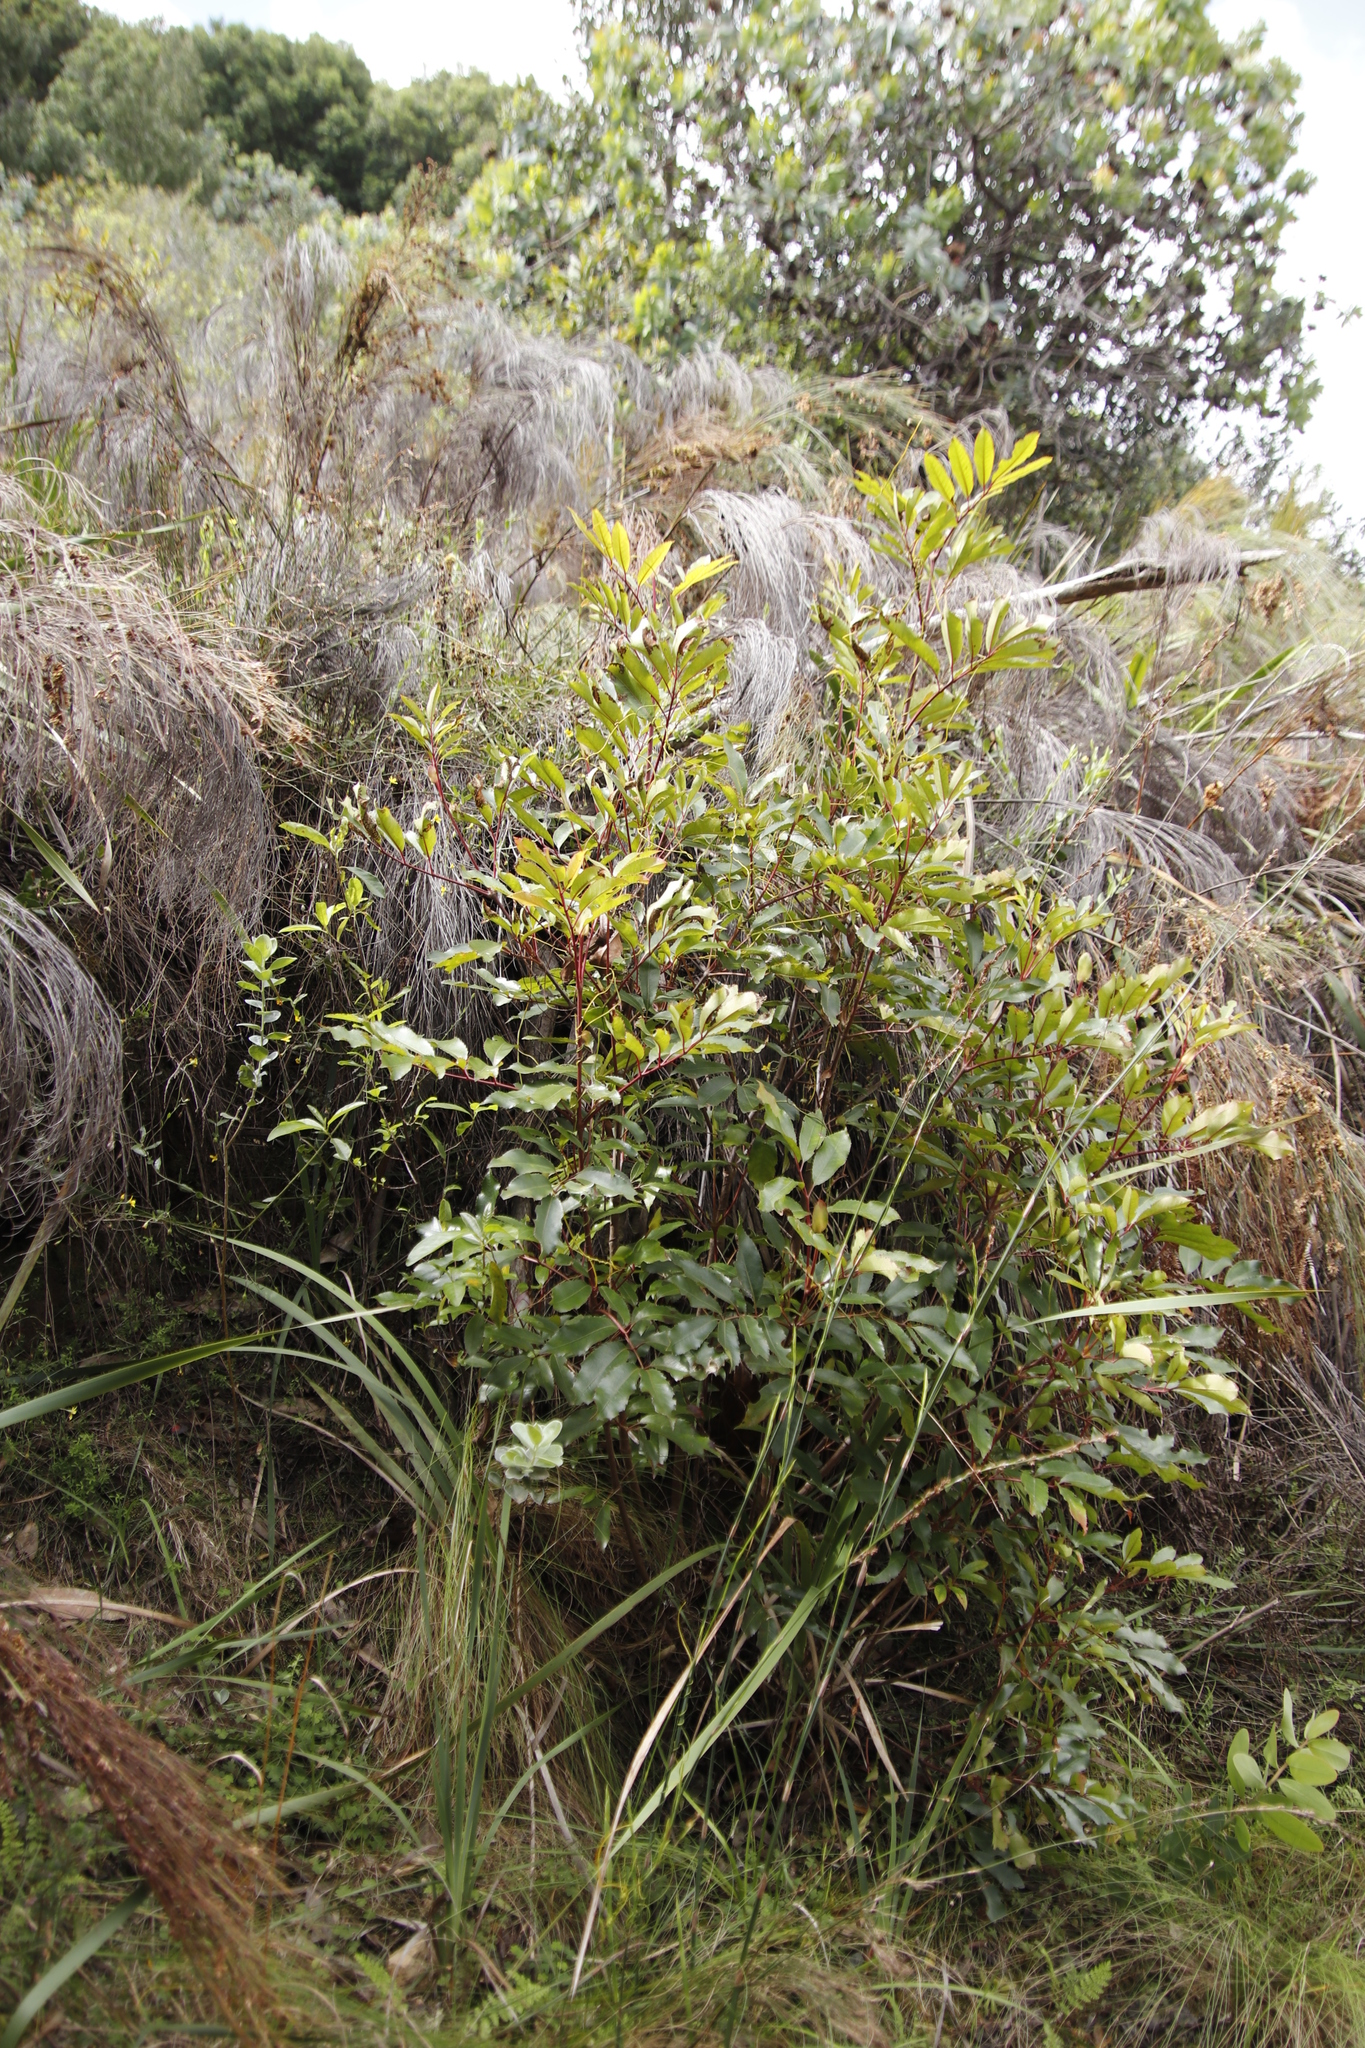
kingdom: Plantae
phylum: Tracheophyta
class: Magnoliopsida
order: Oxalidales
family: Cunoniaceae
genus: Cunonia
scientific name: Cunonia capensis
